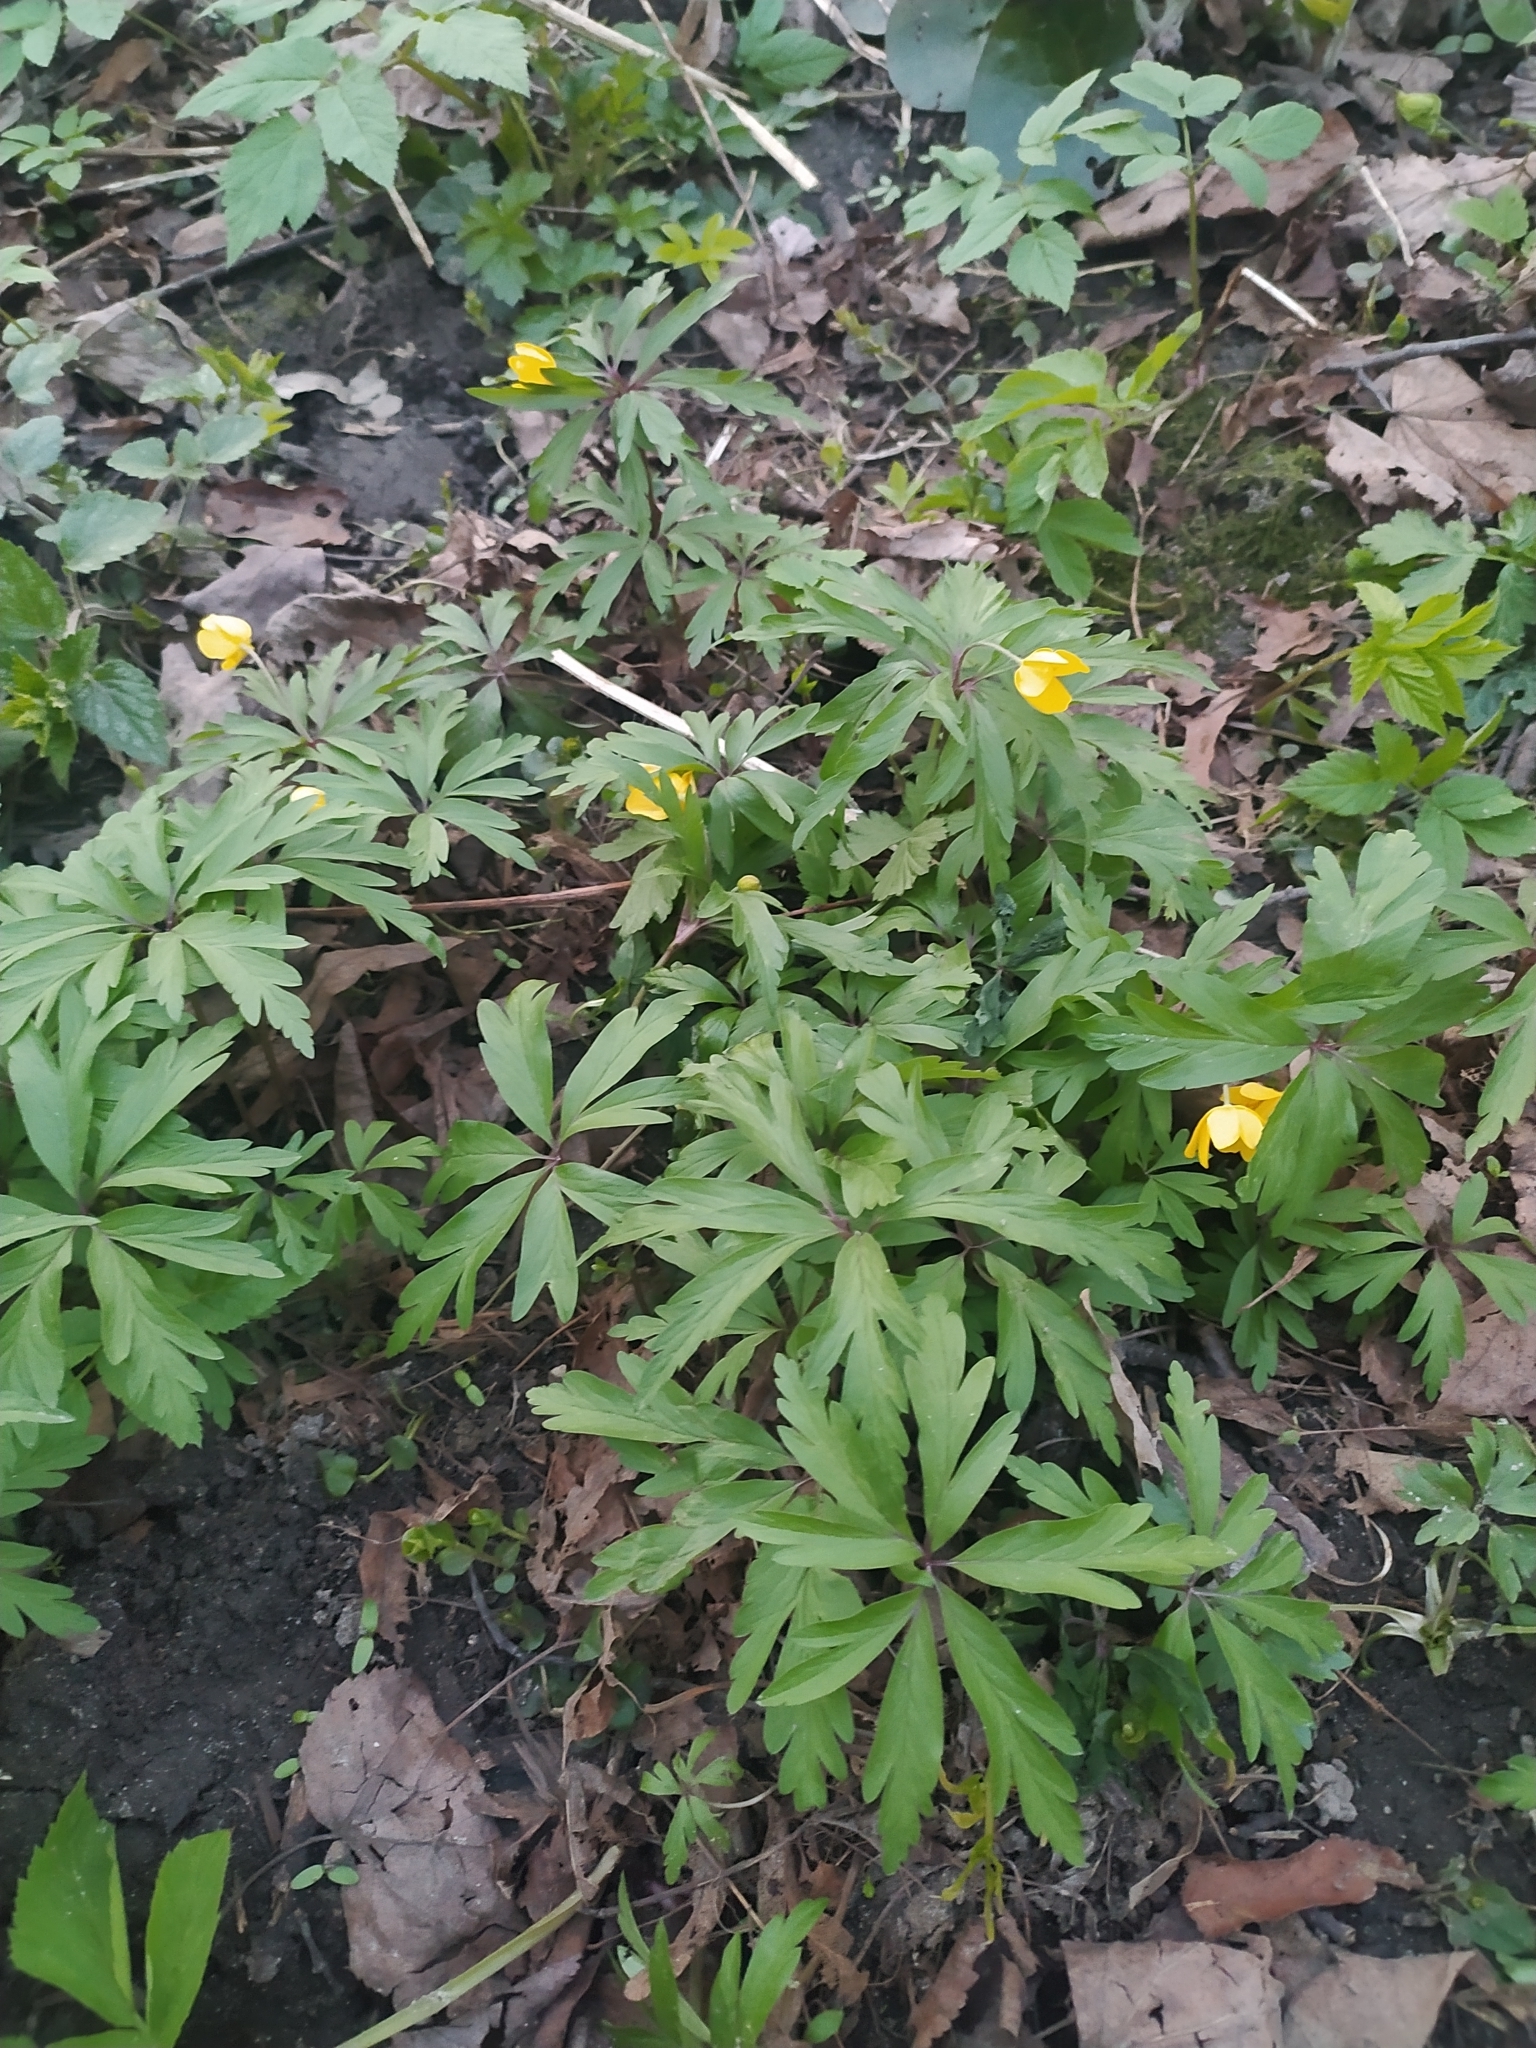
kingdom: Plantae
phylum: Tracheophyta
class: Magnoliopsida
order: Ranunculales
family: Ranunculaceae
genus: Anemone
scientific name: Anemone ranunculoides
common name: Yellow anemone
